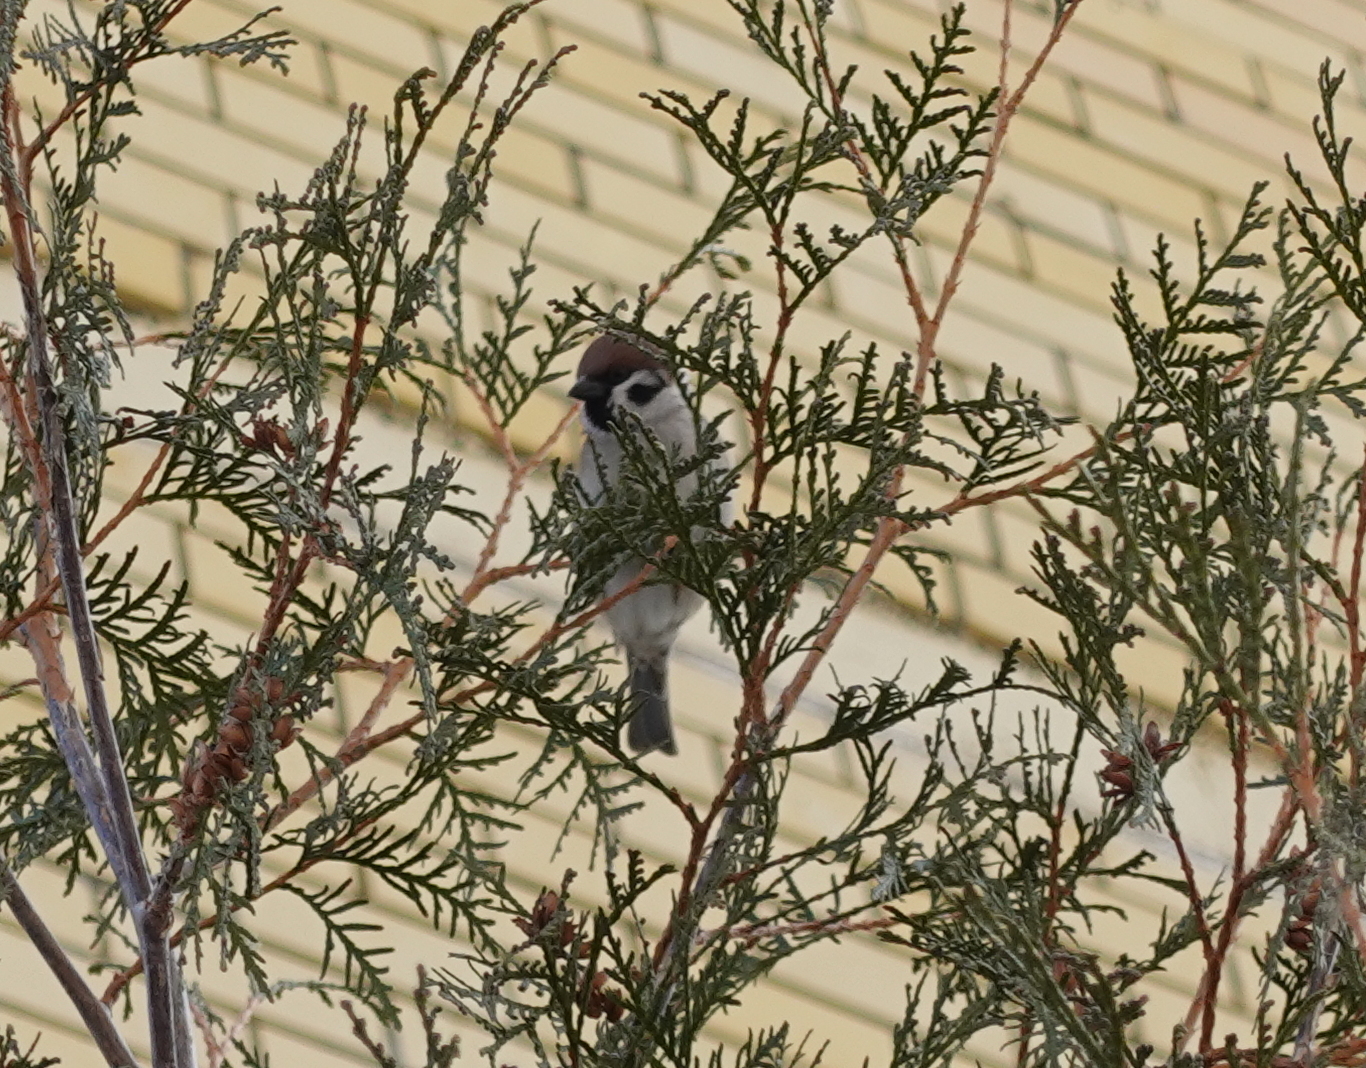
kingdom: Animalia
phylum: Chordata
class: Aves
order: Passeriformes
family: Passeridae
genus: Passer
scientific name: Passer montanus
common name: Eurasian tree sparrow
